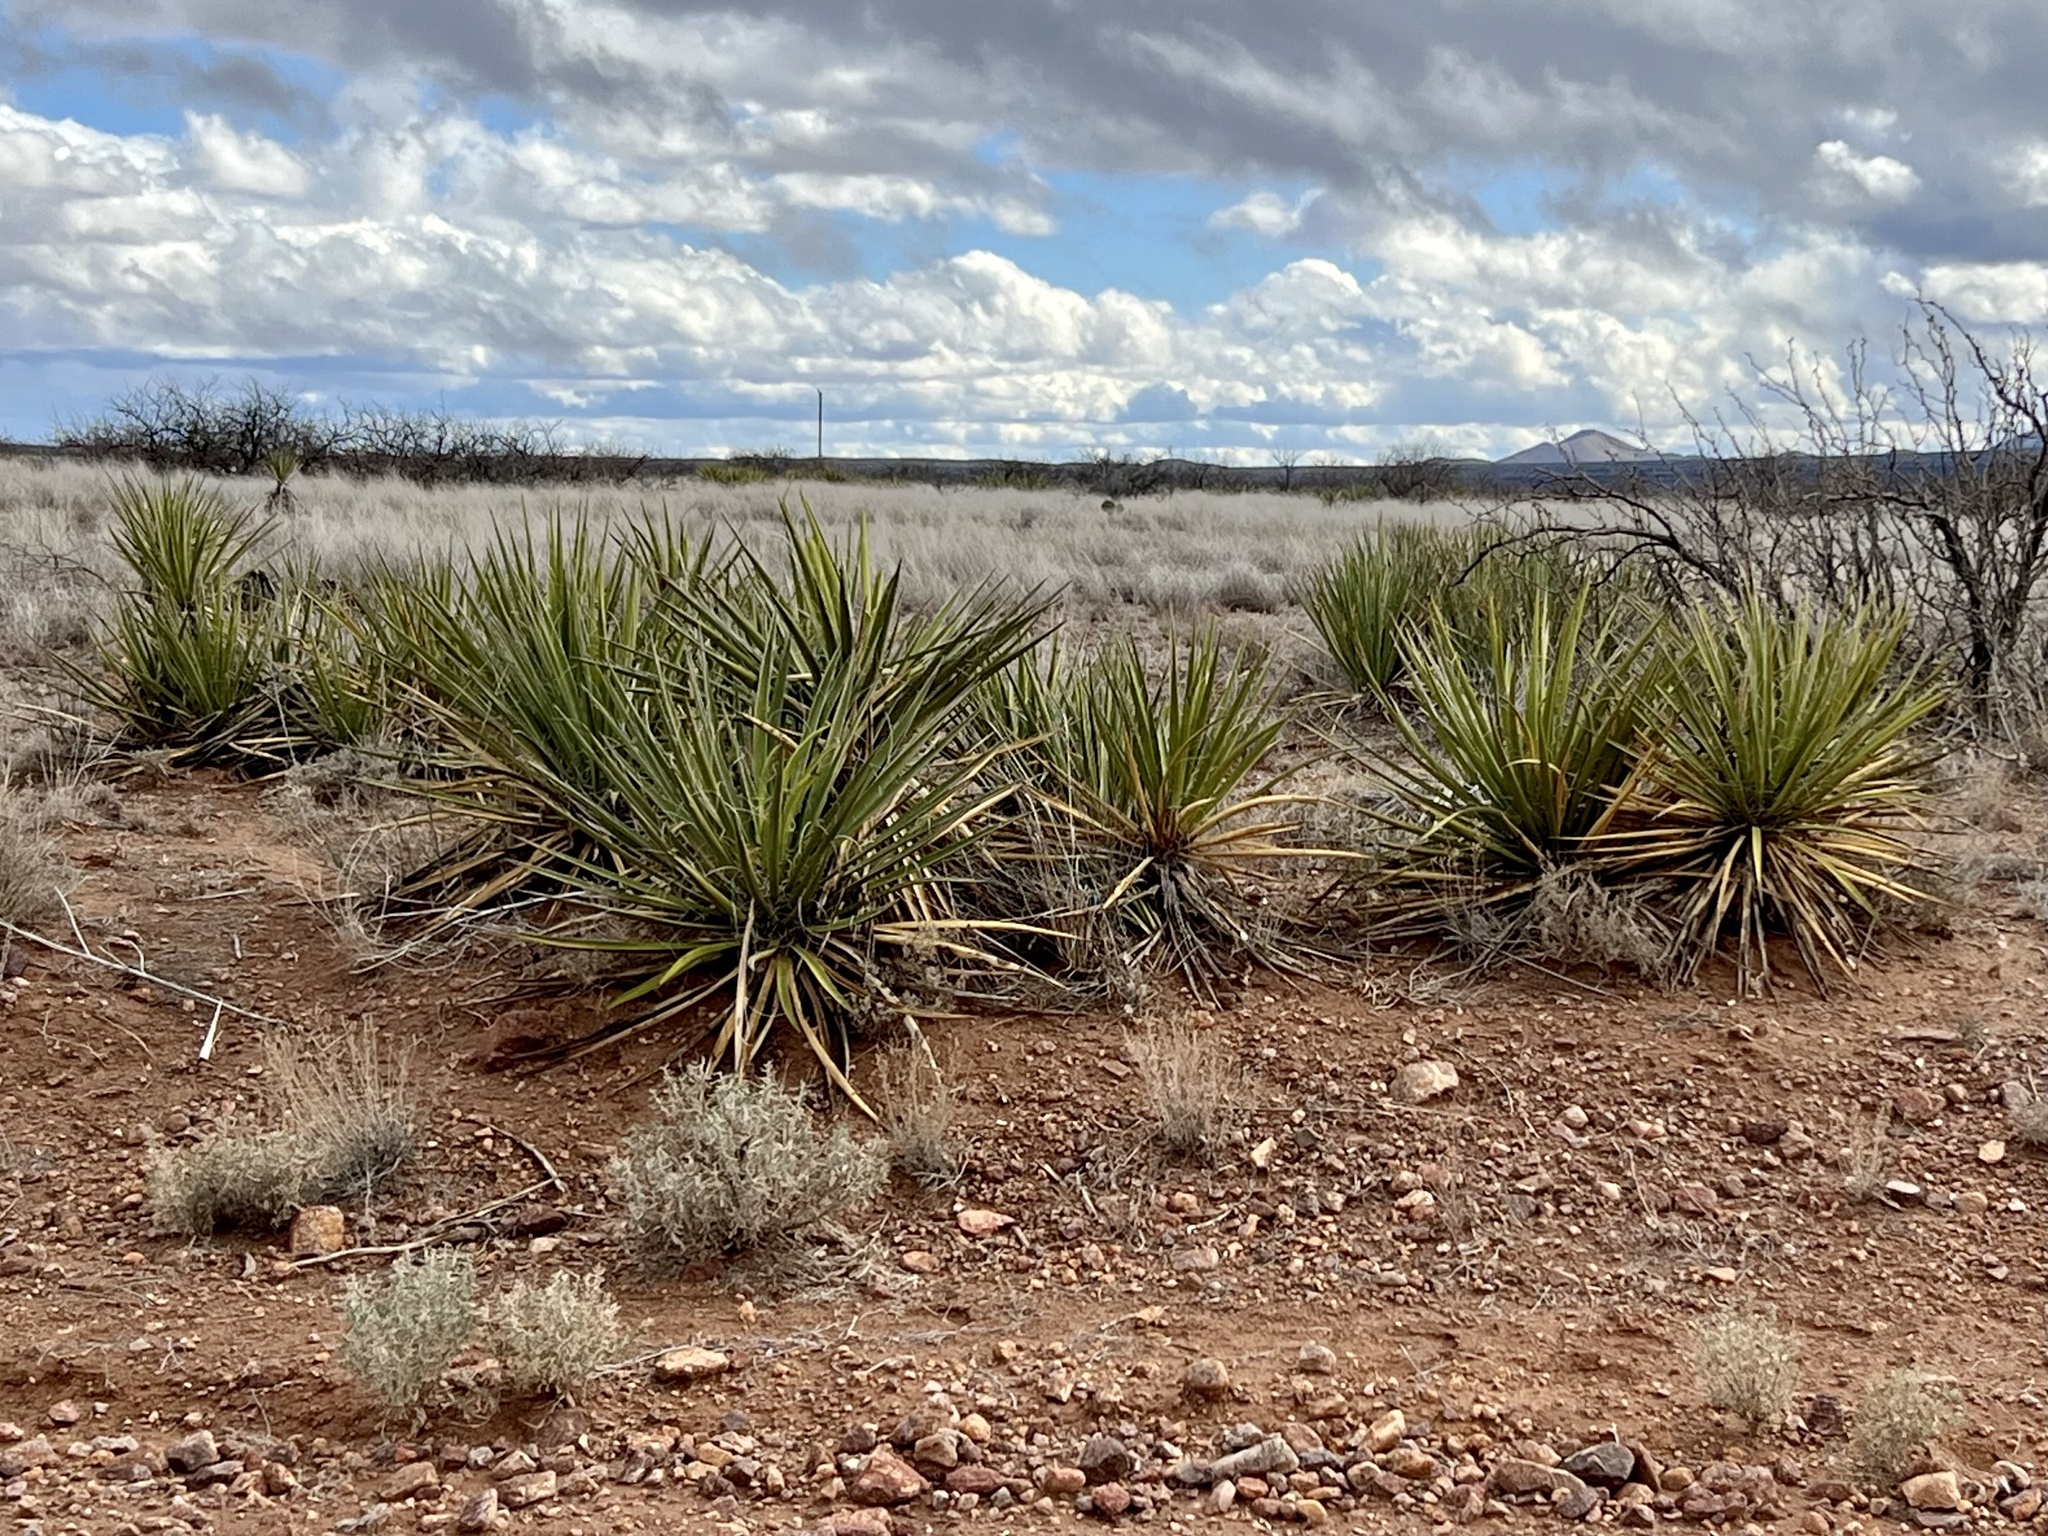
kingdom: Plantae
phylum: Tracheophyta
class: Liliopsida
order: Asparagales
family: Asparagaceae
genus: Yucca
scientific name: Yucca baccata
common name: Banana yucca
